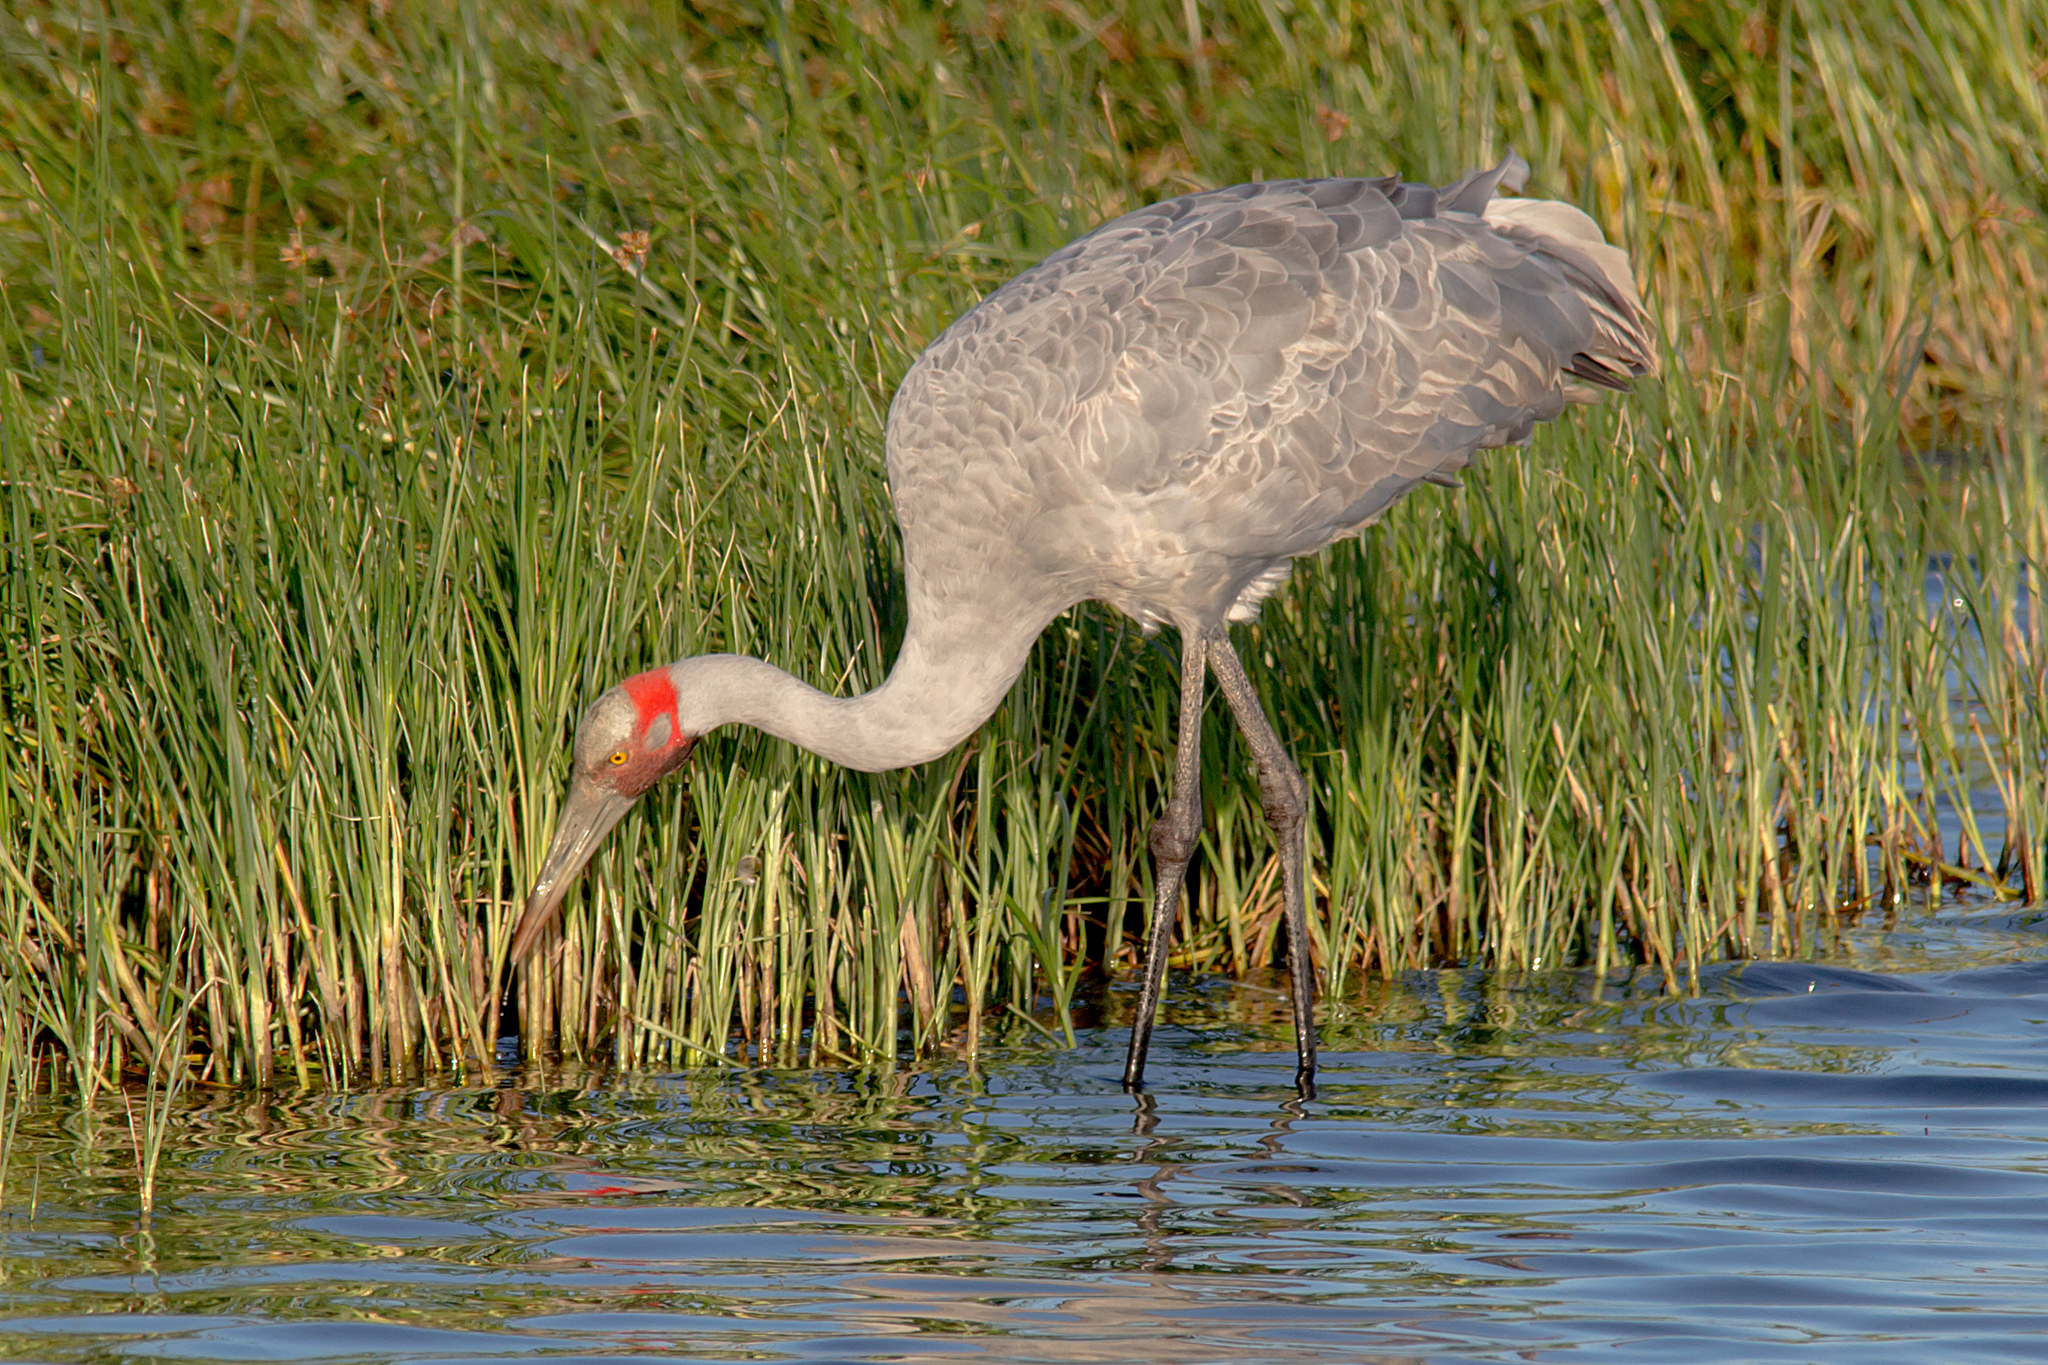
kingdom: Animalia
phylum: Chordata
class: Aves
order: Gruiformes
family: Gruidae
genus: Grus
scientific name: Grus rubicunda
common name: Brolga
